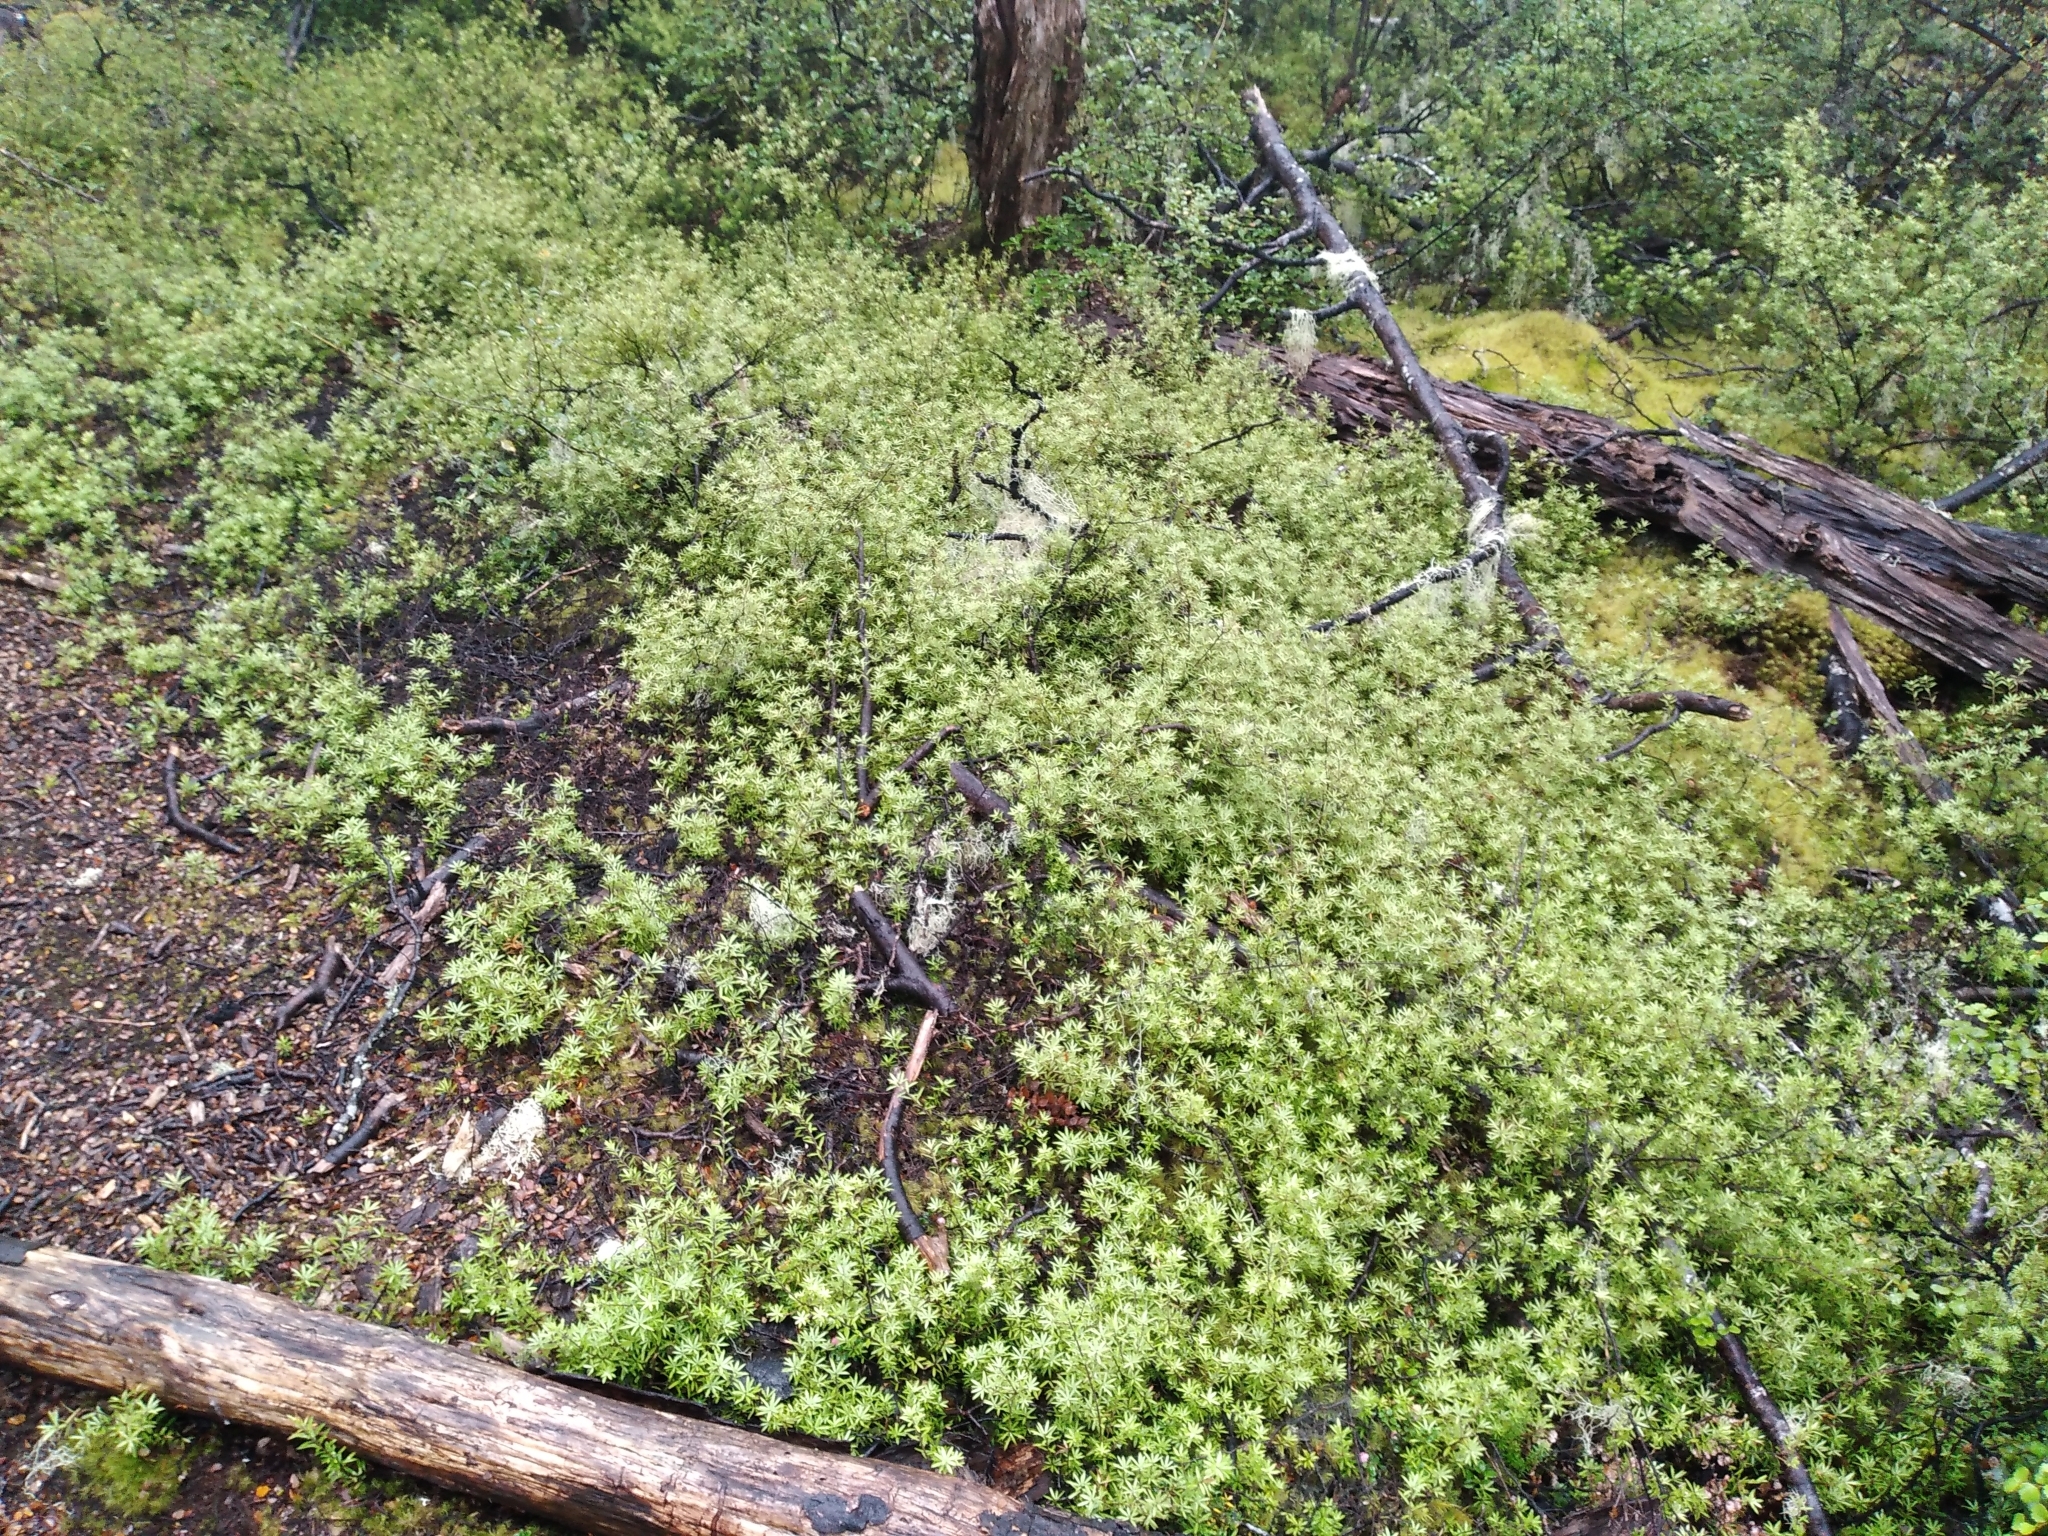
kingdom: Plantae
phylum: Tracheophyta
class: Magnoliopsida
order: Ericales
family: Ericaceae
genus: Leucopogon
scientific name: Leucopogon fasciculatus
